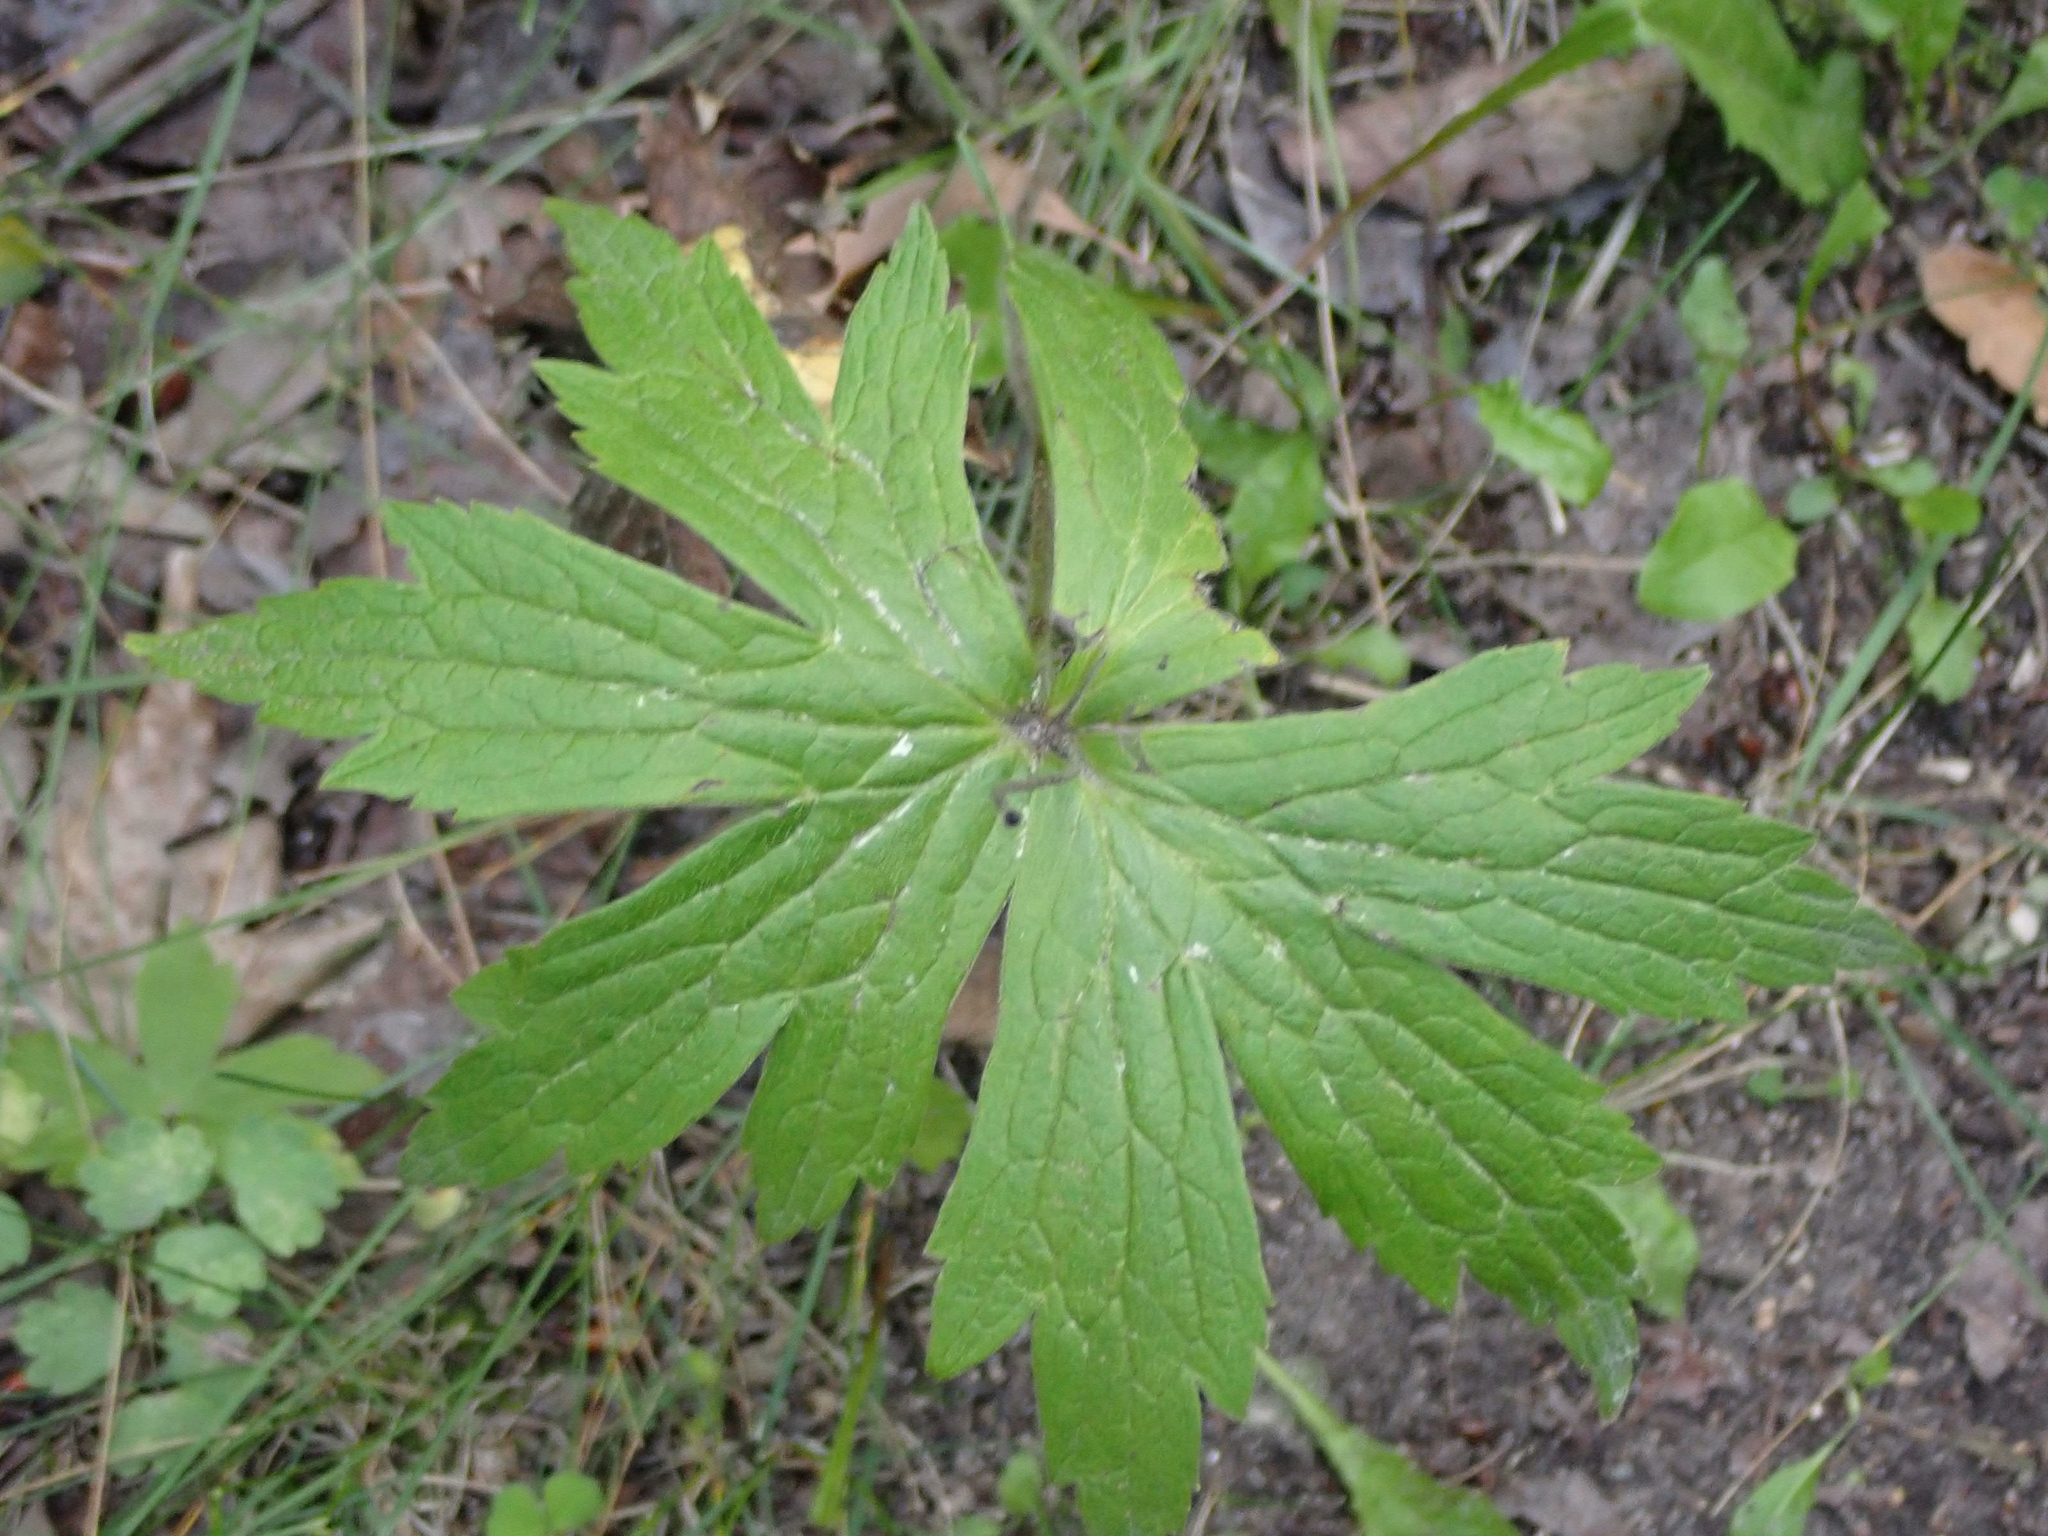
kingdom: Plantae
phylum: Tracheophyta
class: Magnoliopsida
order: Ranunculales
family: Ranunculaceae
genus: Anemonastrum
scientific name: Anemonastrum canadense
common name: Canada anemone
